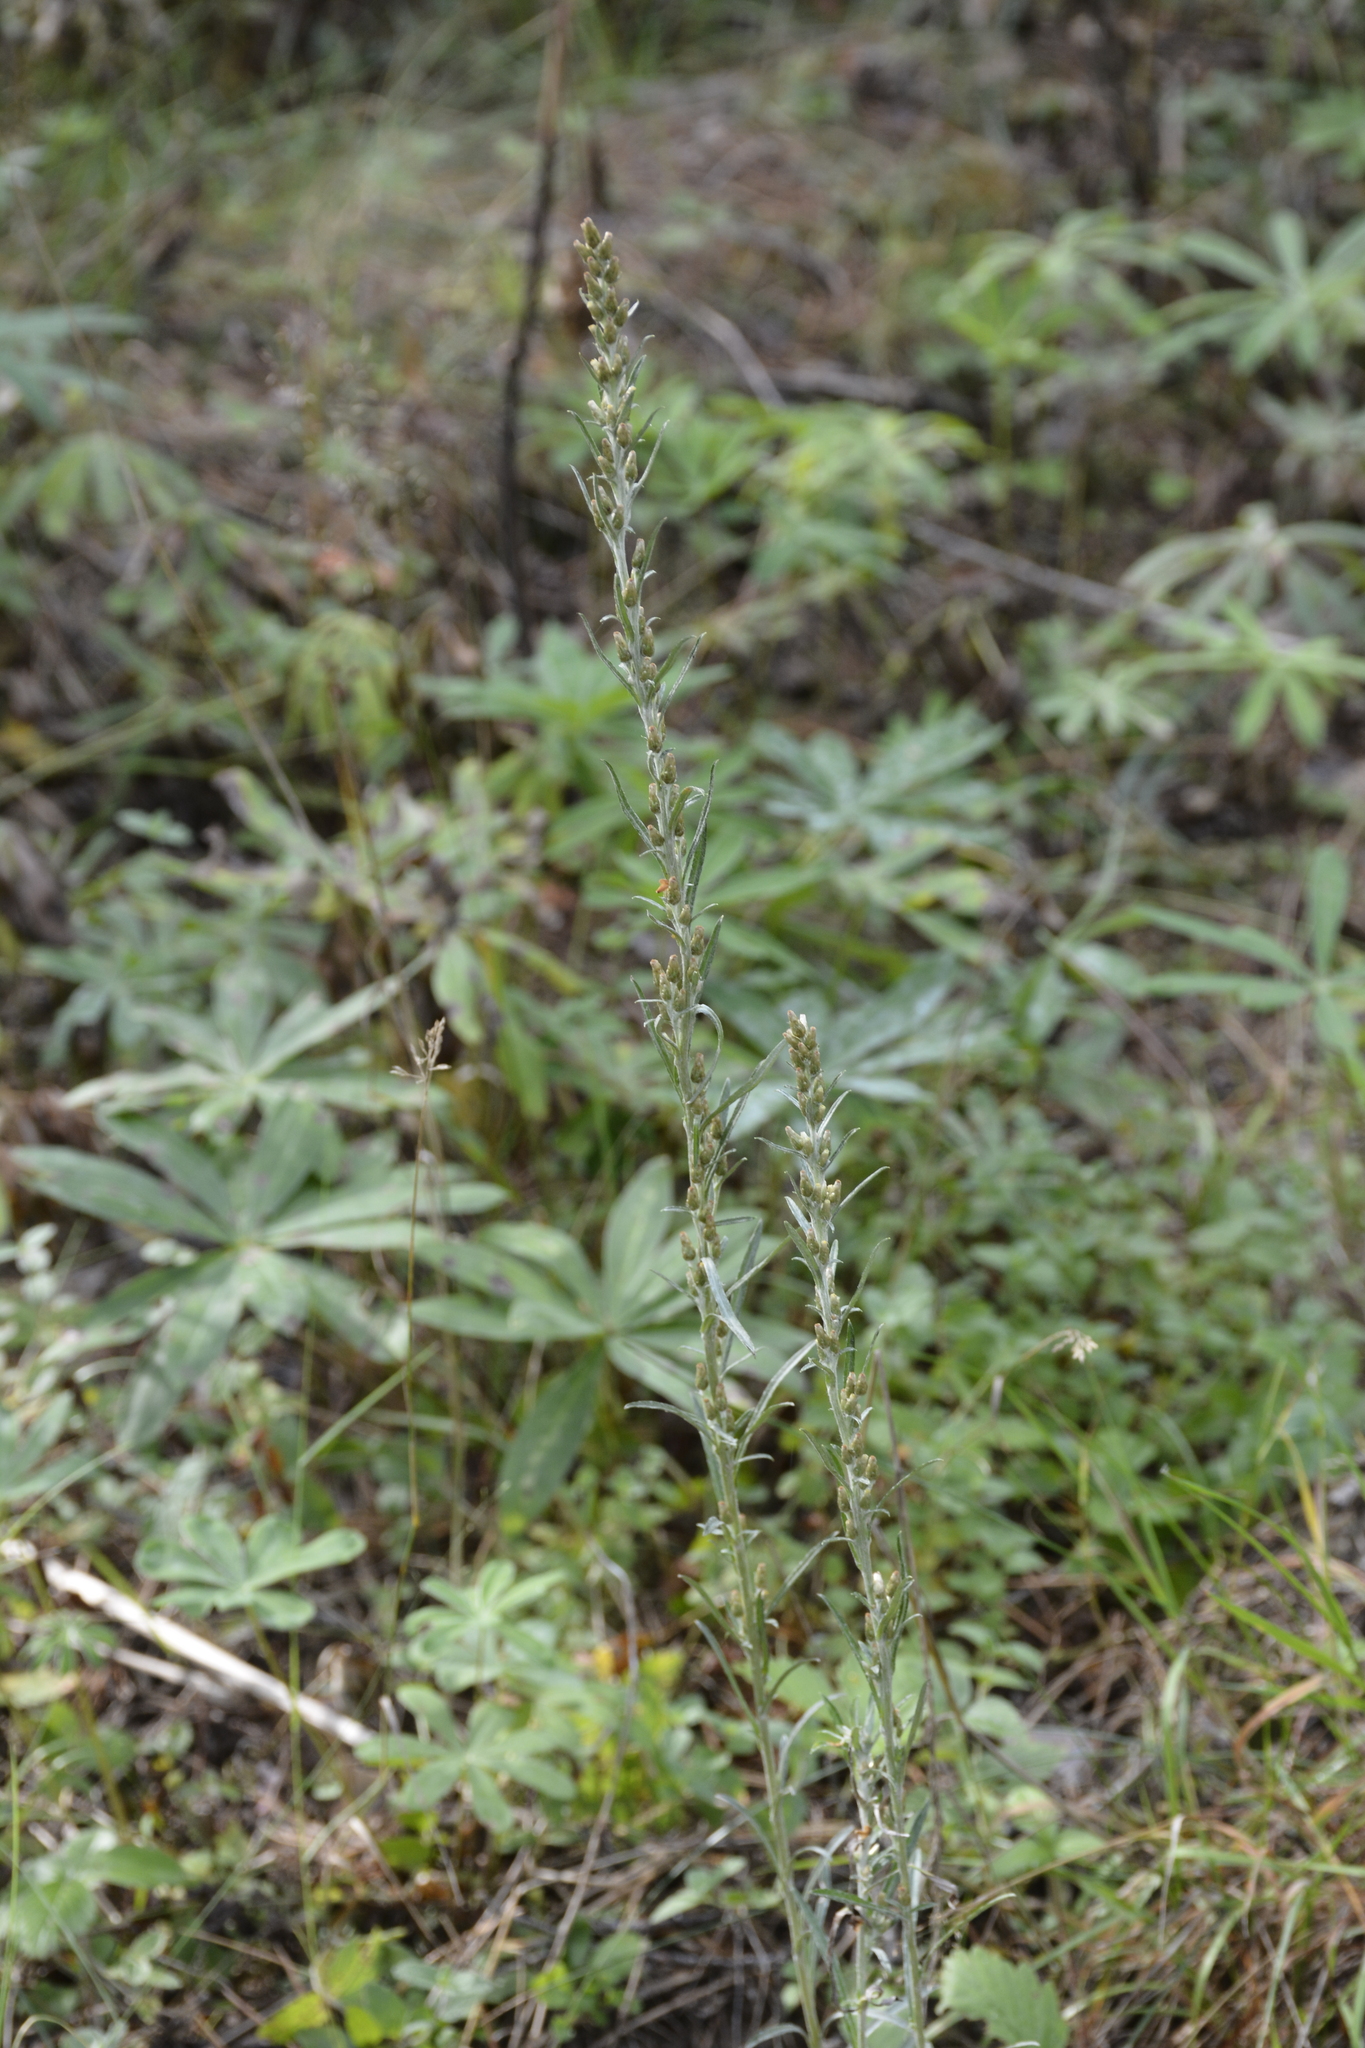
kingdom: Plantae
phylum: Tracheophyta
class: Magnoliopsida
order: Asterales
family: Asteraceae
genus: Omalotheca
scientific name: Omalotheca sylvatica
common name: Heath cudweed
